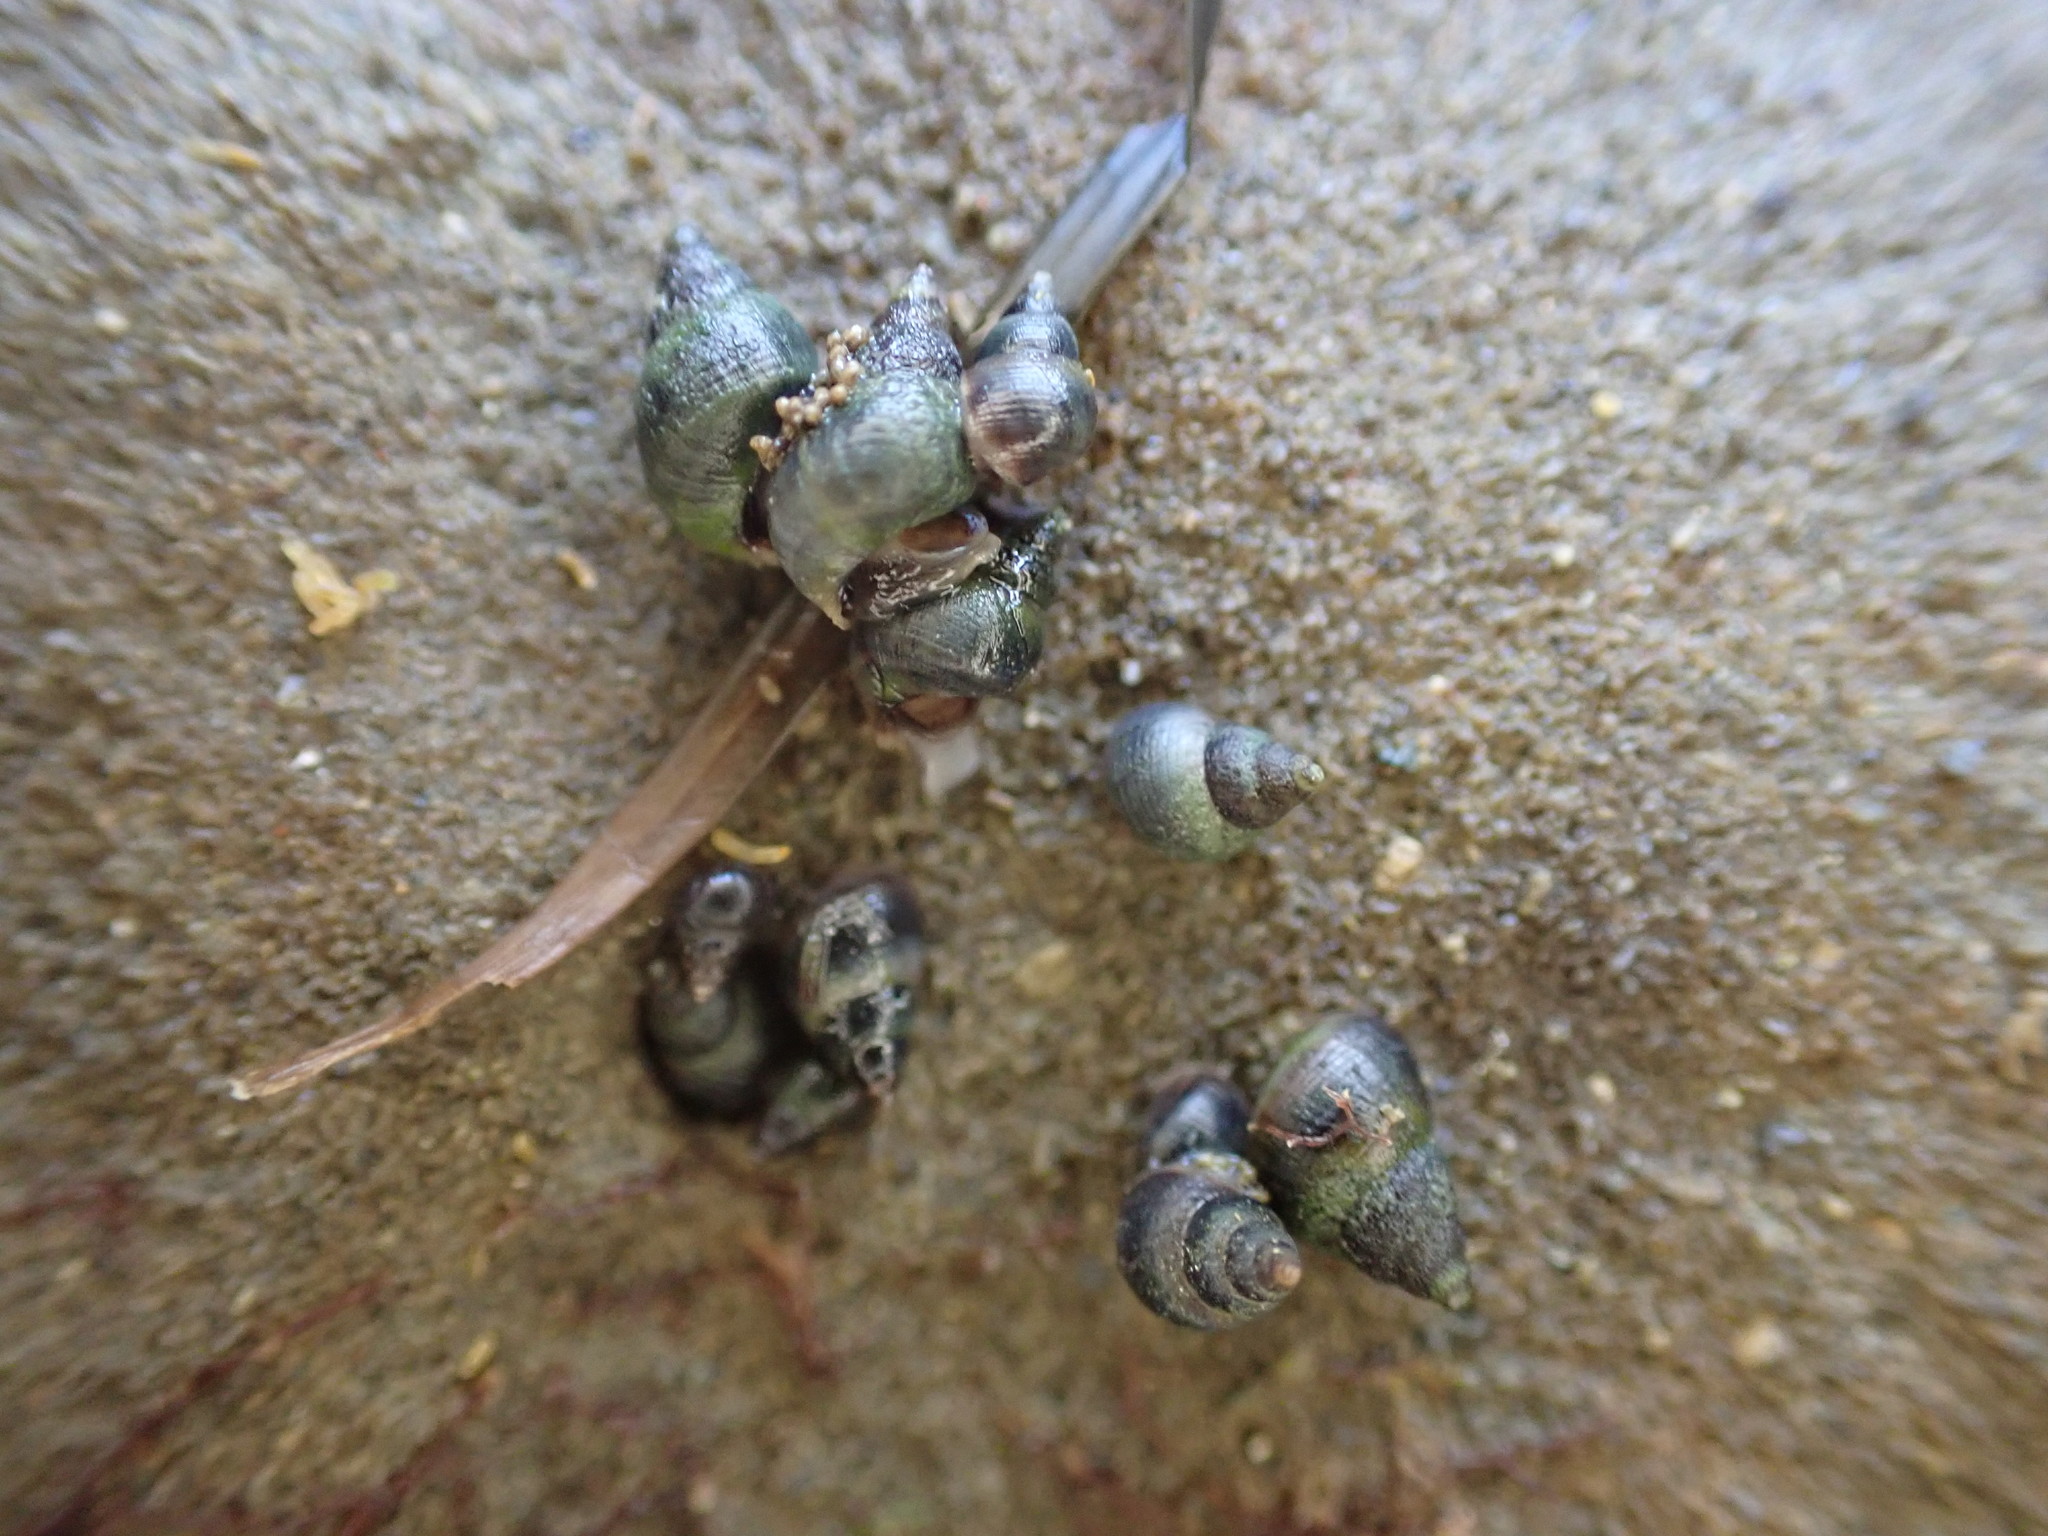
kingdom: Animalia
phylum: Mollusca
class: Gastropoda
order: Littorinimorpha
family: Littorinidae
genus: Austrolittorina
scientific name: Austrolittorina antipodum
